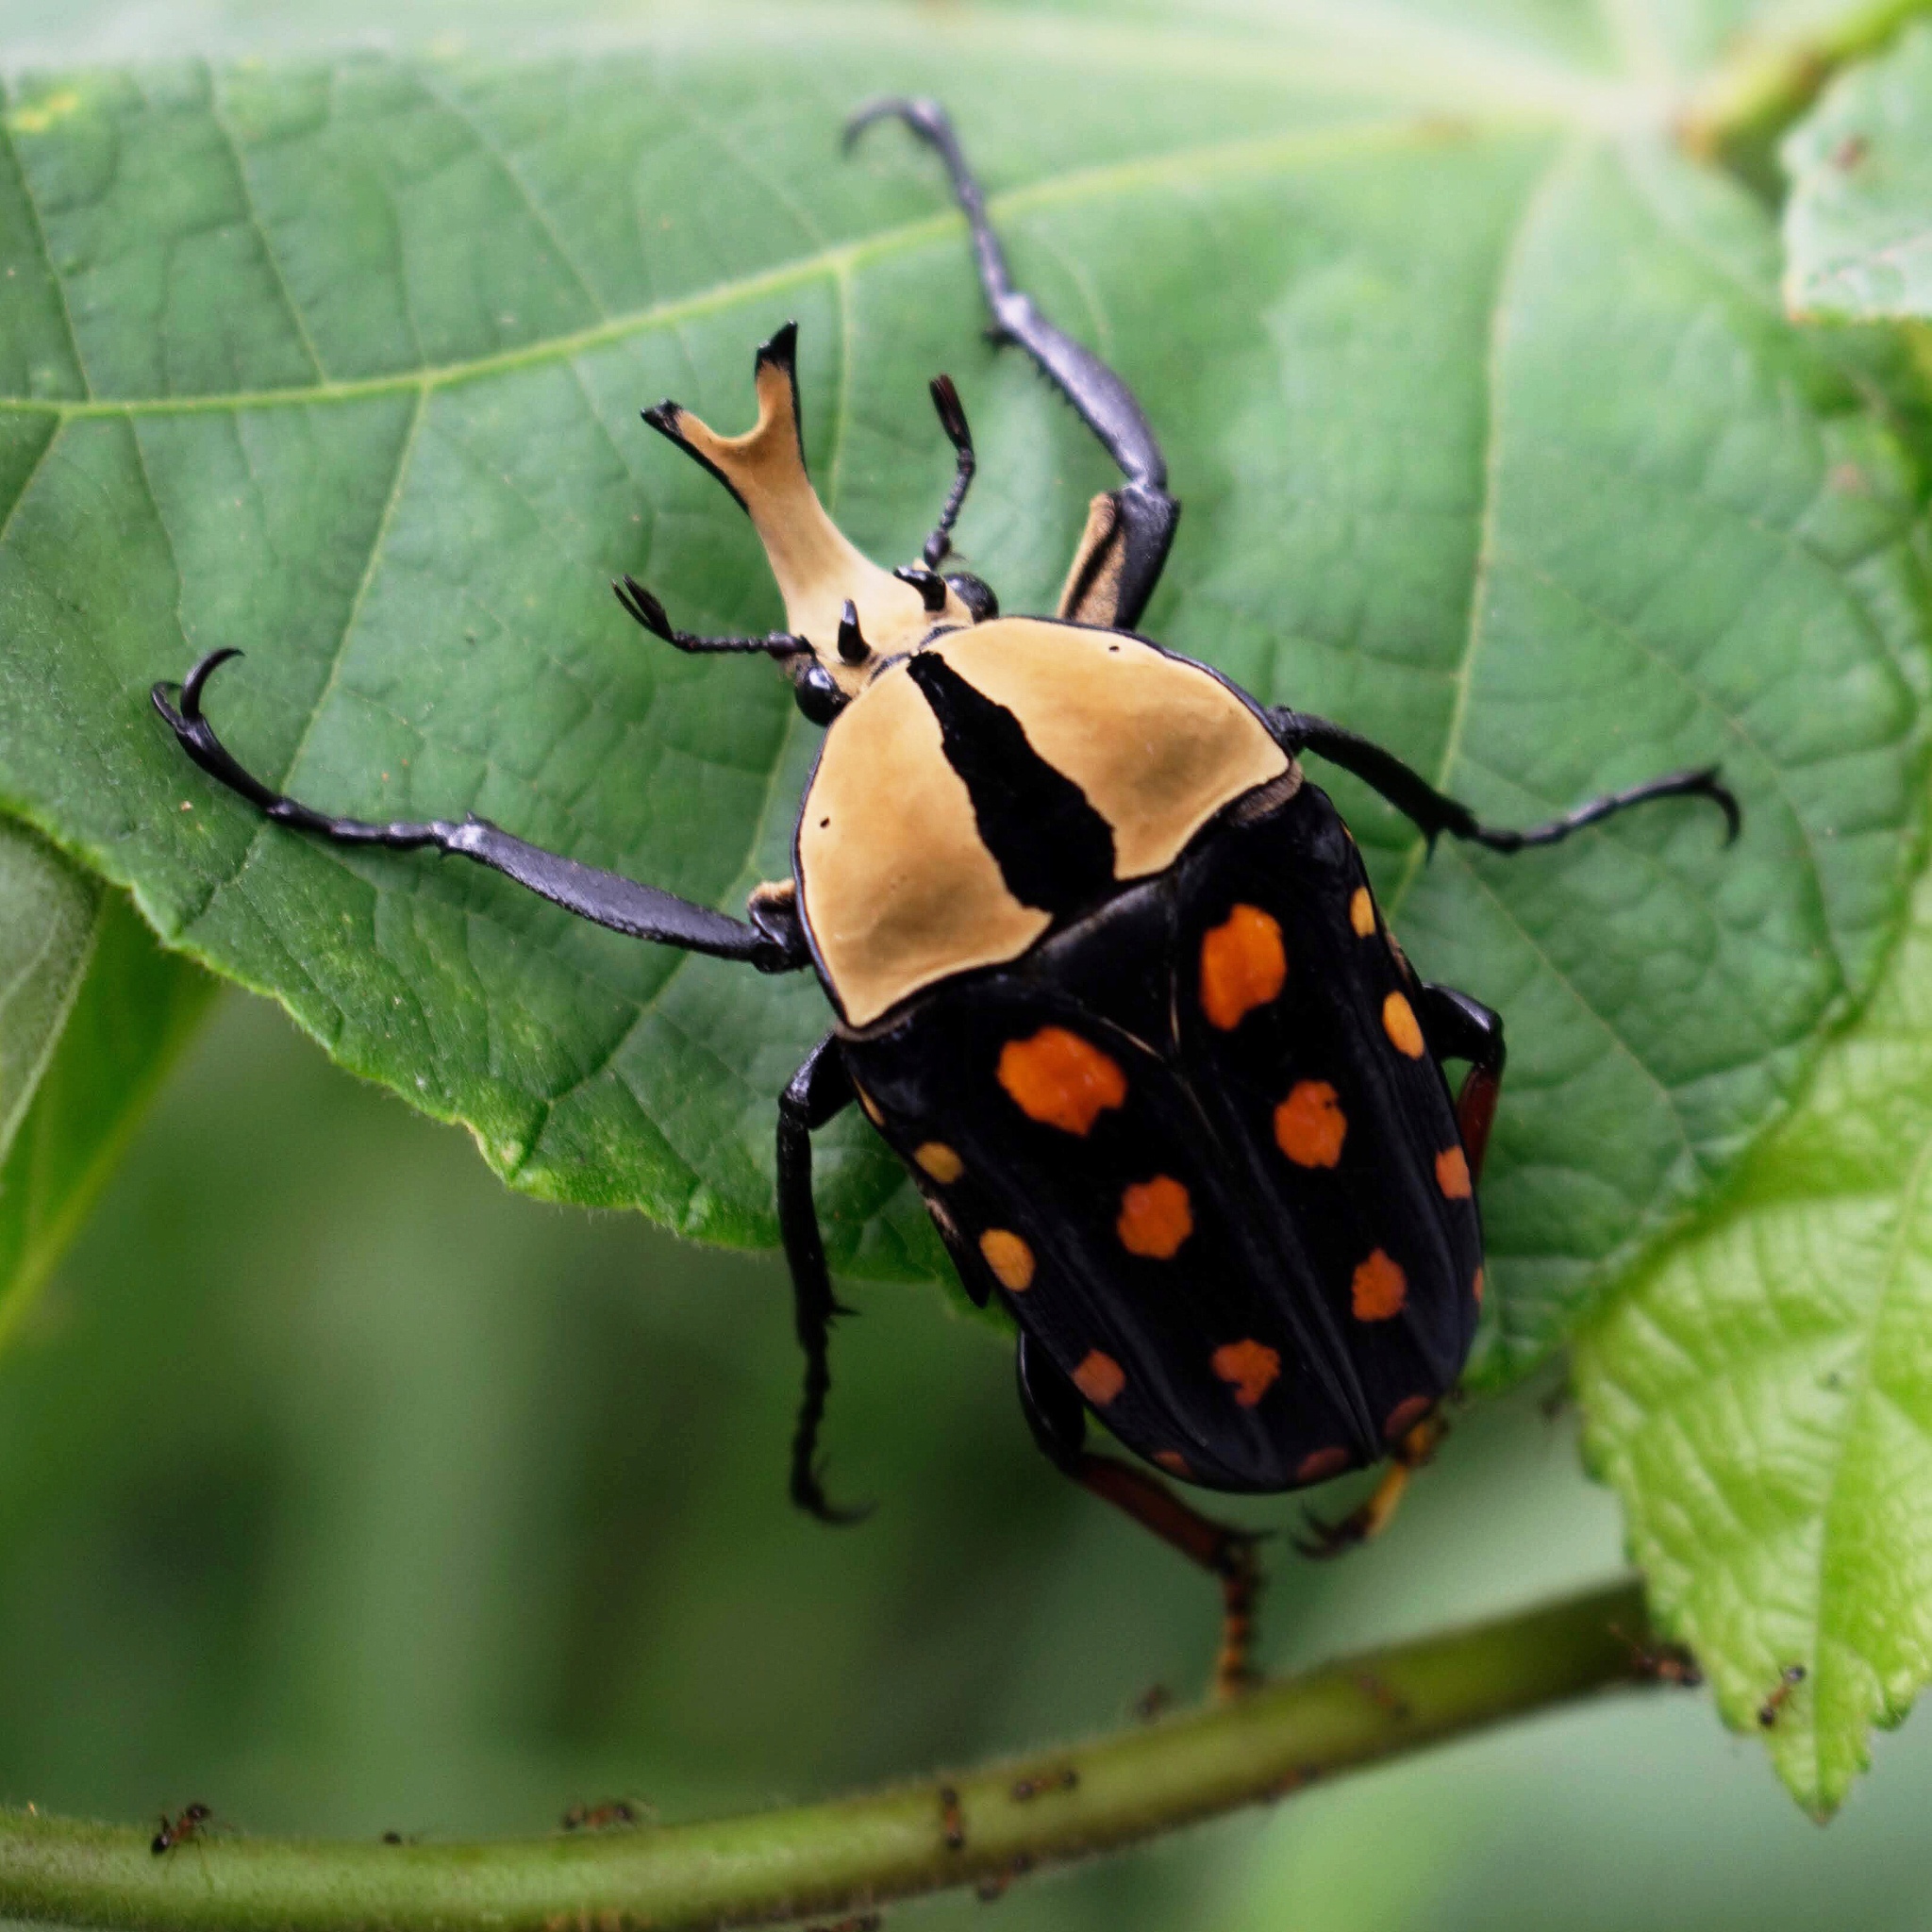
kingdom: Animalia
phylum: Arthropoda
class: Insecta
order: Coleoptera
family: Scarabaeidae
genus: Mecynorhina
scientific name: Mecynorhina passerinii
